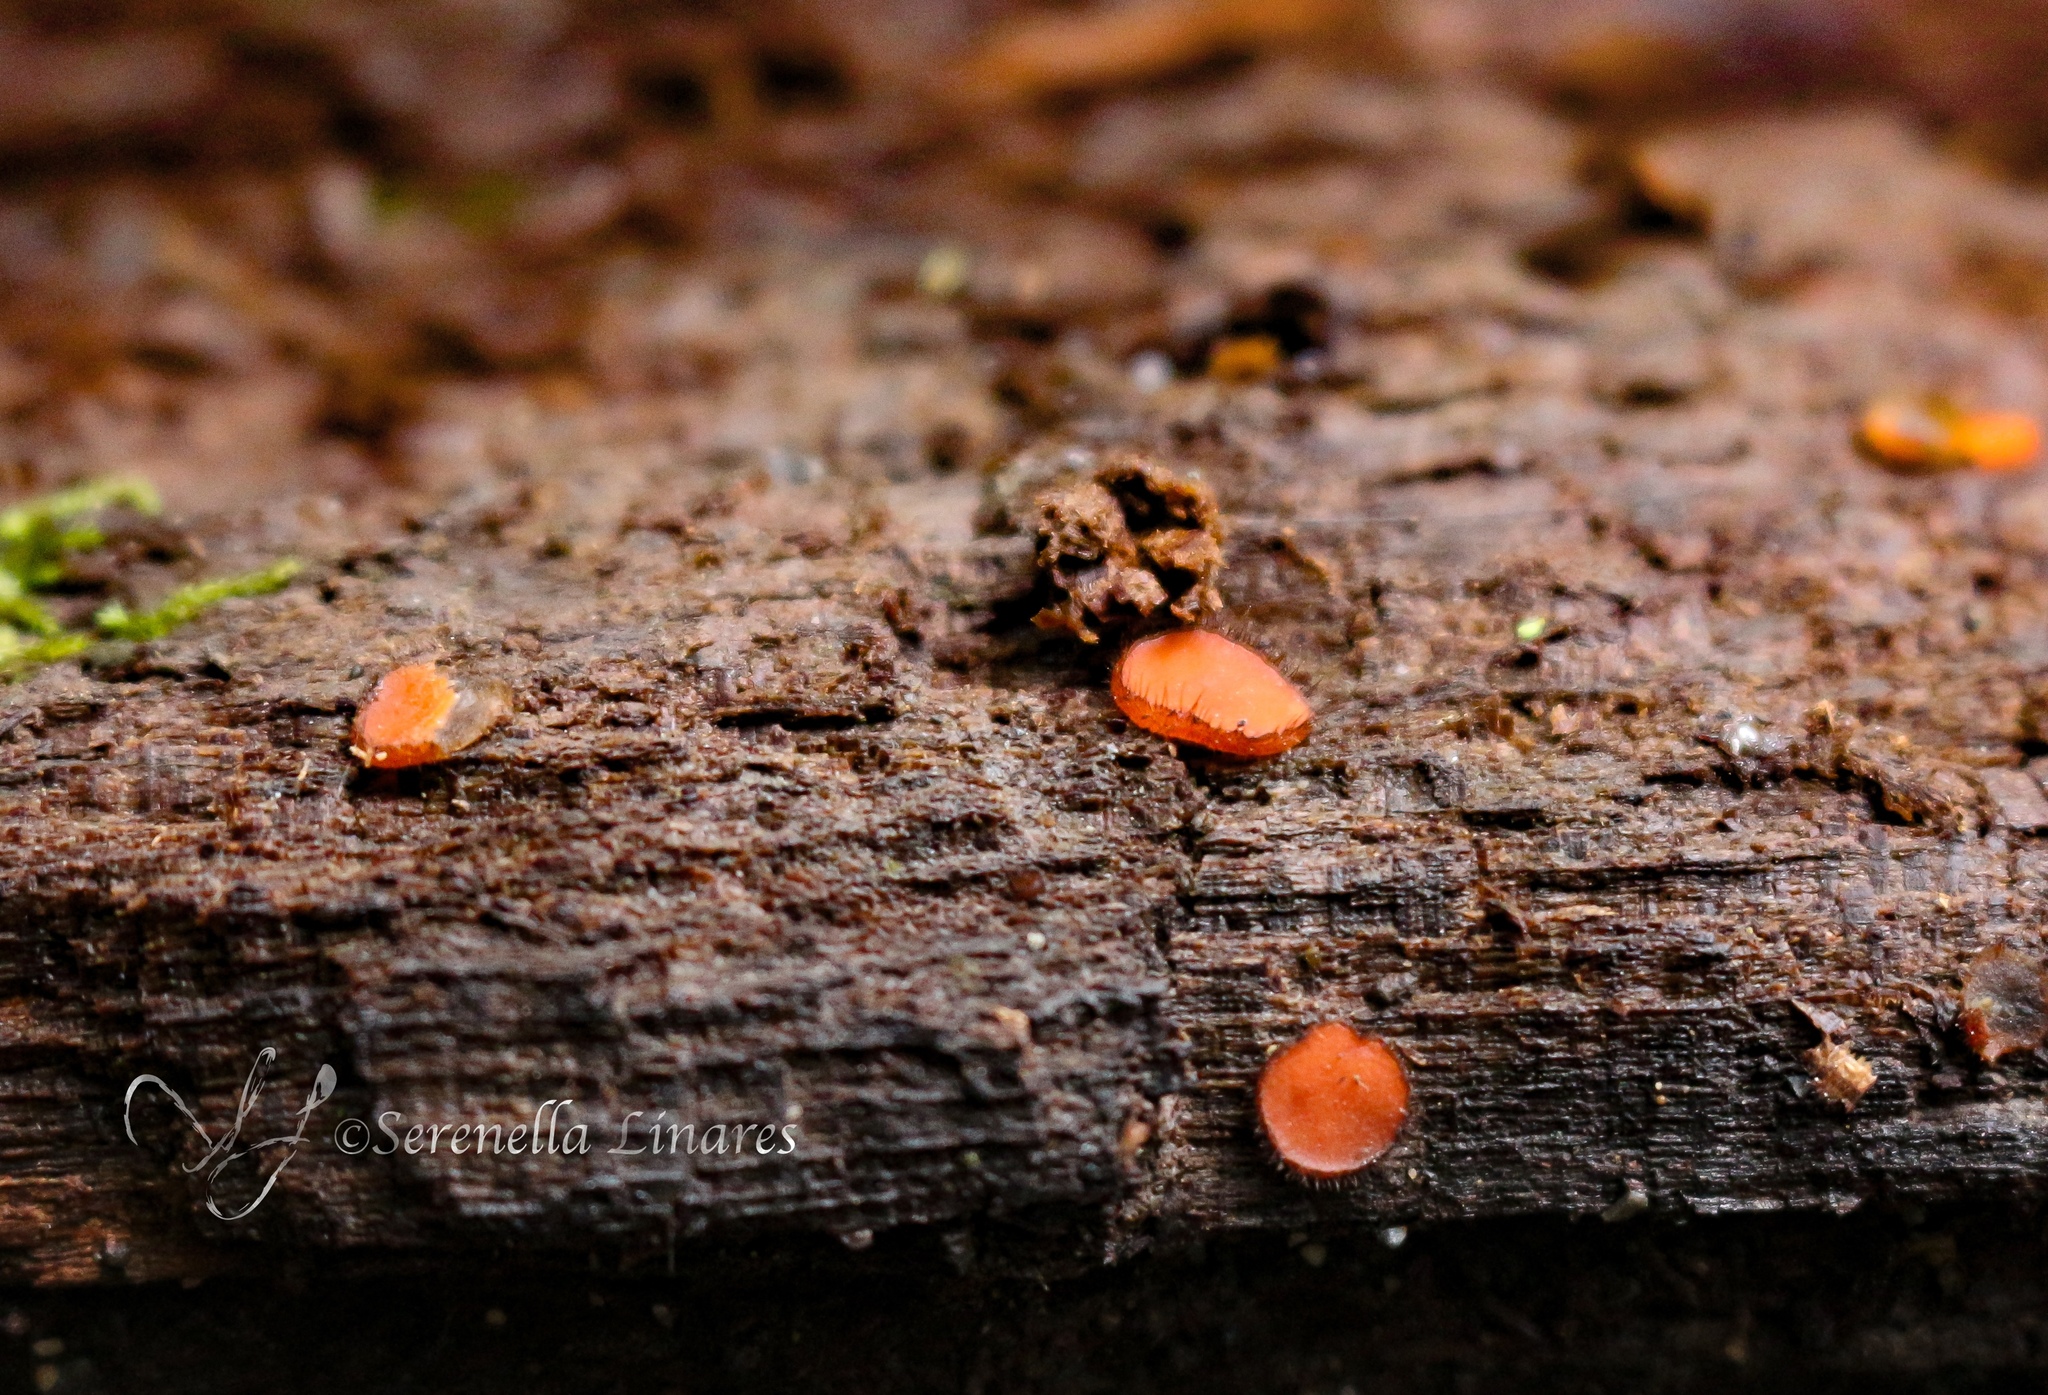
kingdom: Fungi
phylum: Ascomycota
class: Pezizomycetes
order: Pezizales
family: Pyronemataceae
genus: Scutellinia
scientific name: Scutellinia scutellata
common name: Common eyelash
